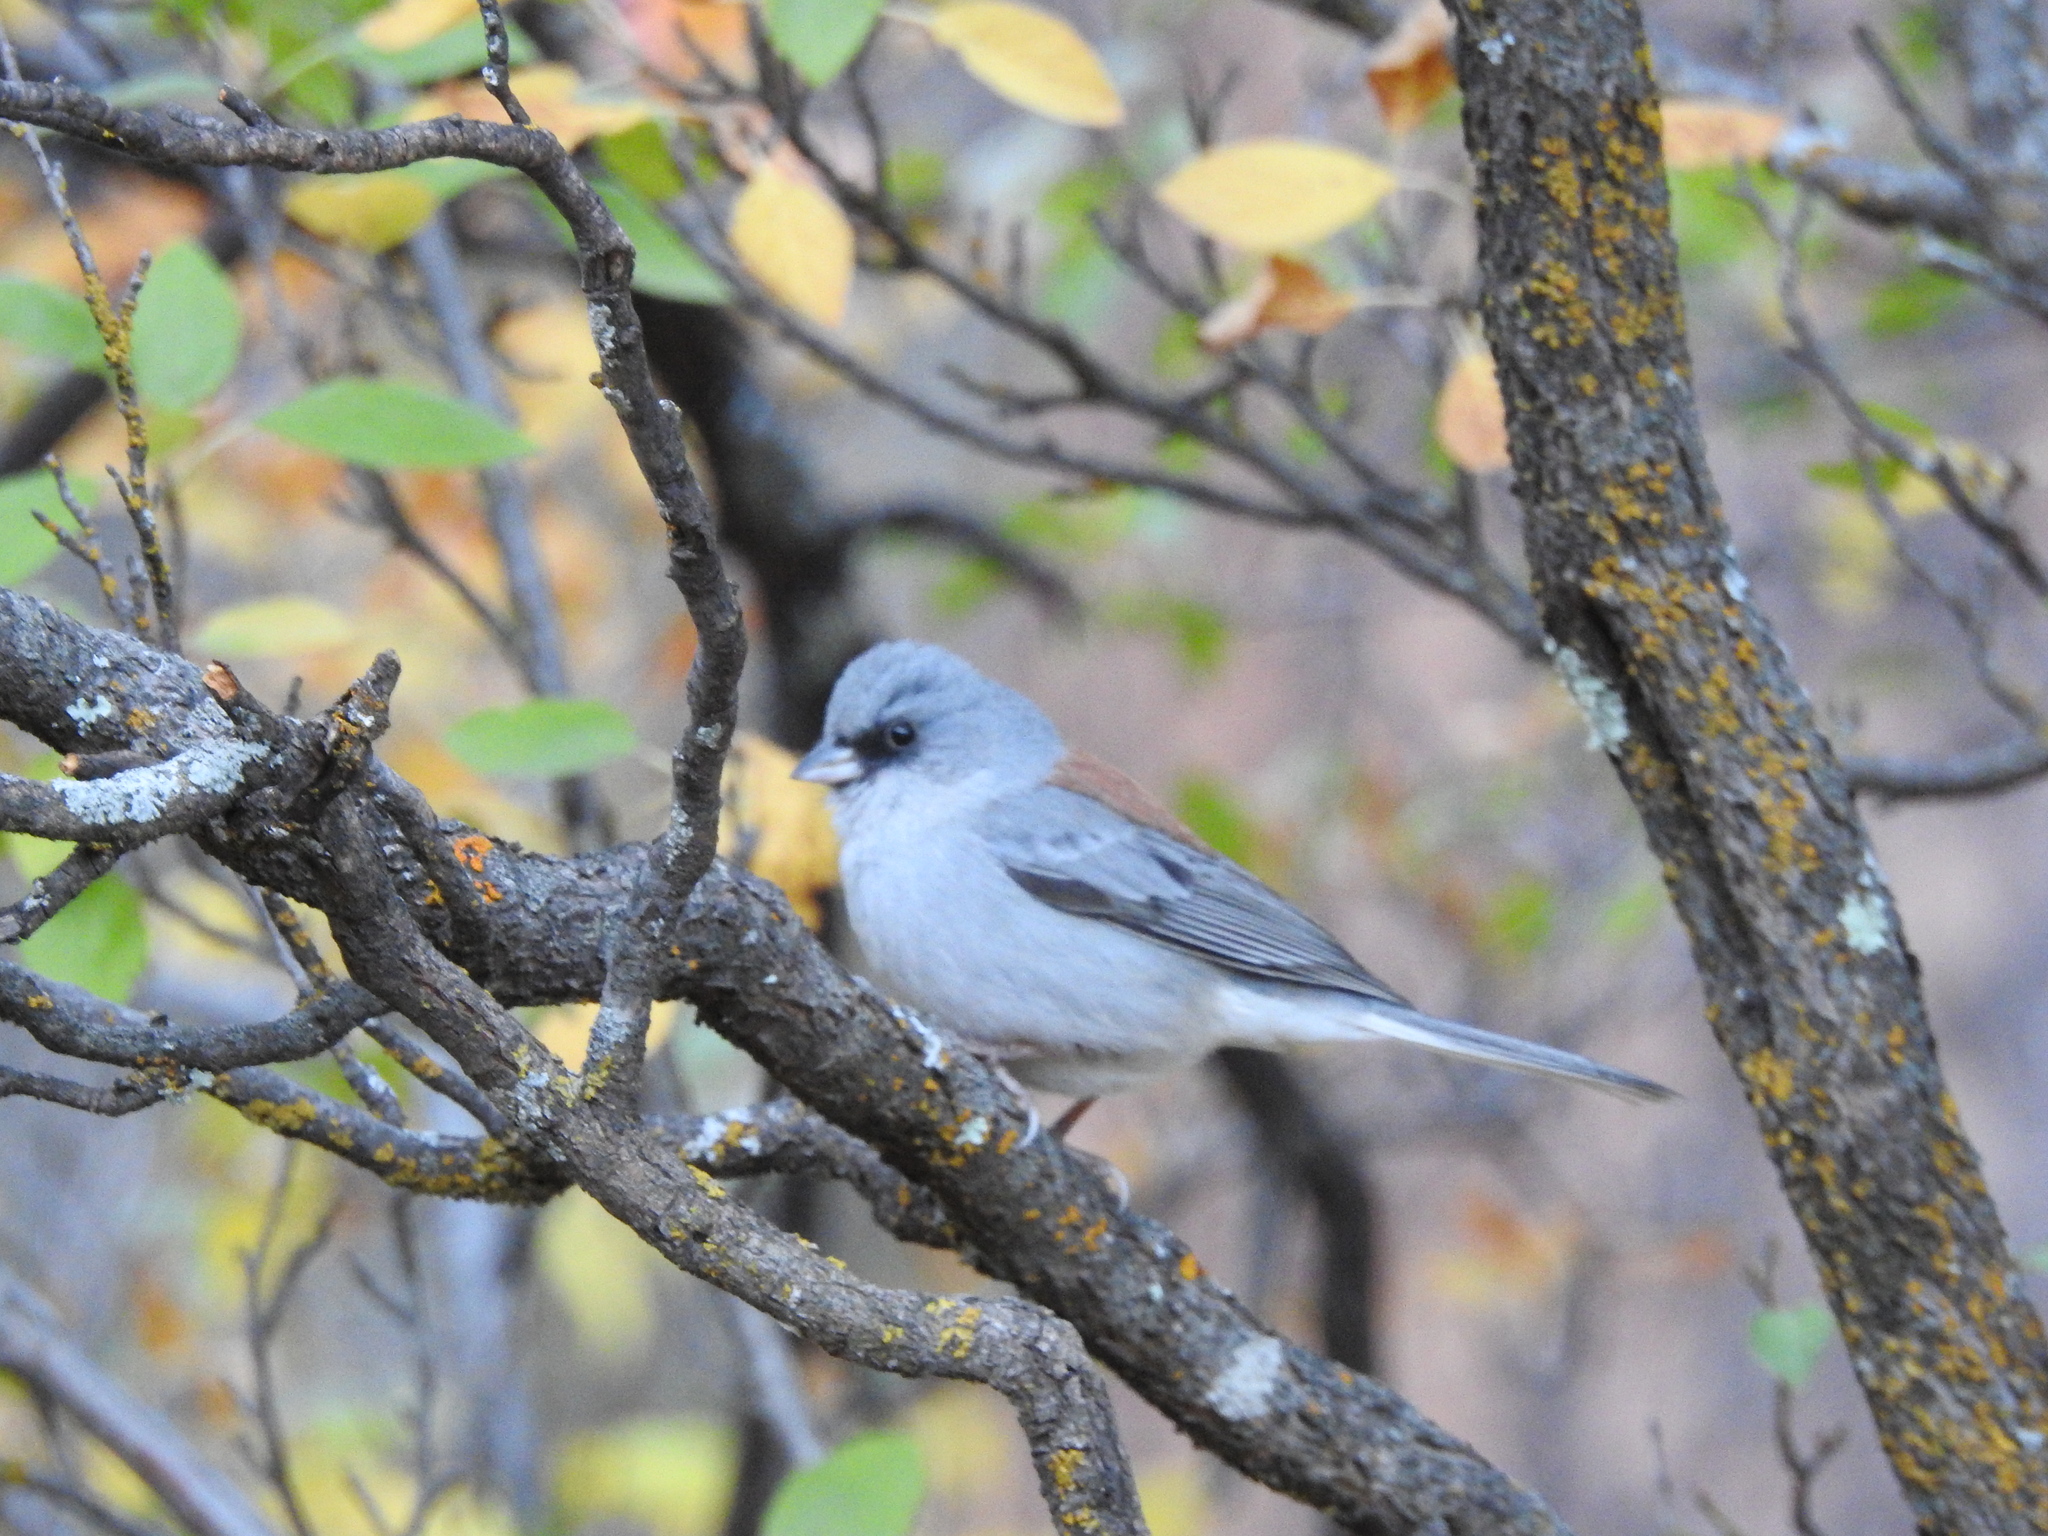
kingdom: Animalia
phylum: Chordata
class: Aves
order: Passeriformes
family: Passerellidae
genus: Junco
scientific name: Junco hyemalis
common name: Dark-eyed junco
